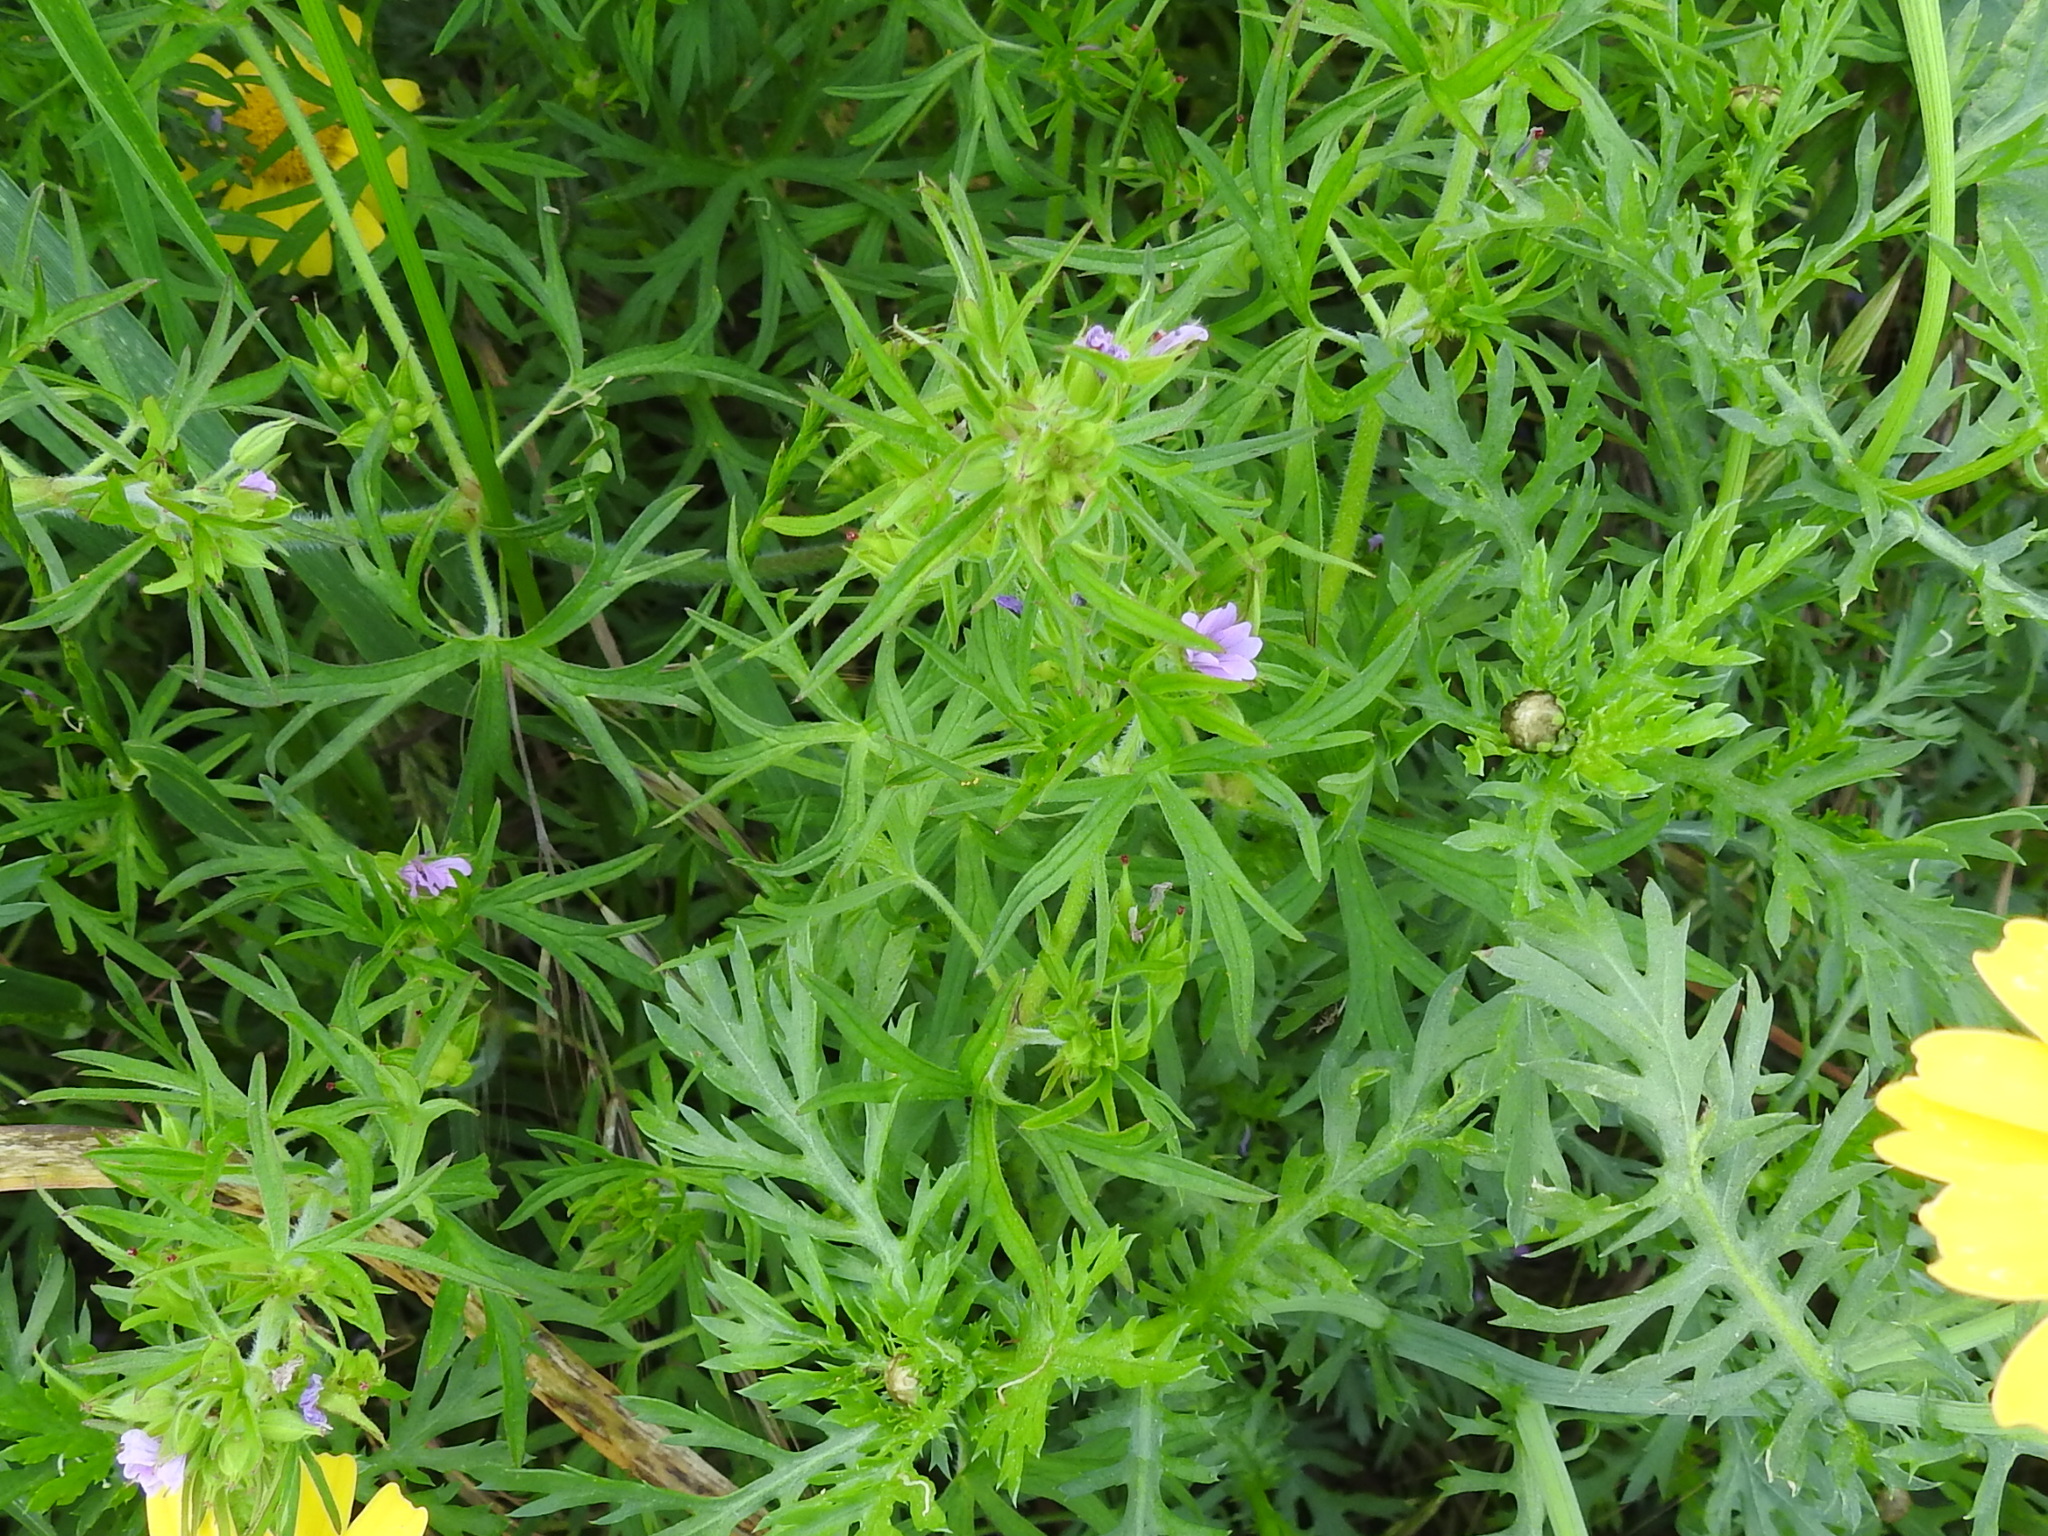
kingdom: Plantae
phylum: Tracheophyta
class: Magnoliopsida
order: Geraniales
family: Geraniaceae
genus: Geranium
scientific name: Geranium dissectum
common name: Cut-leaved crane's-bill
